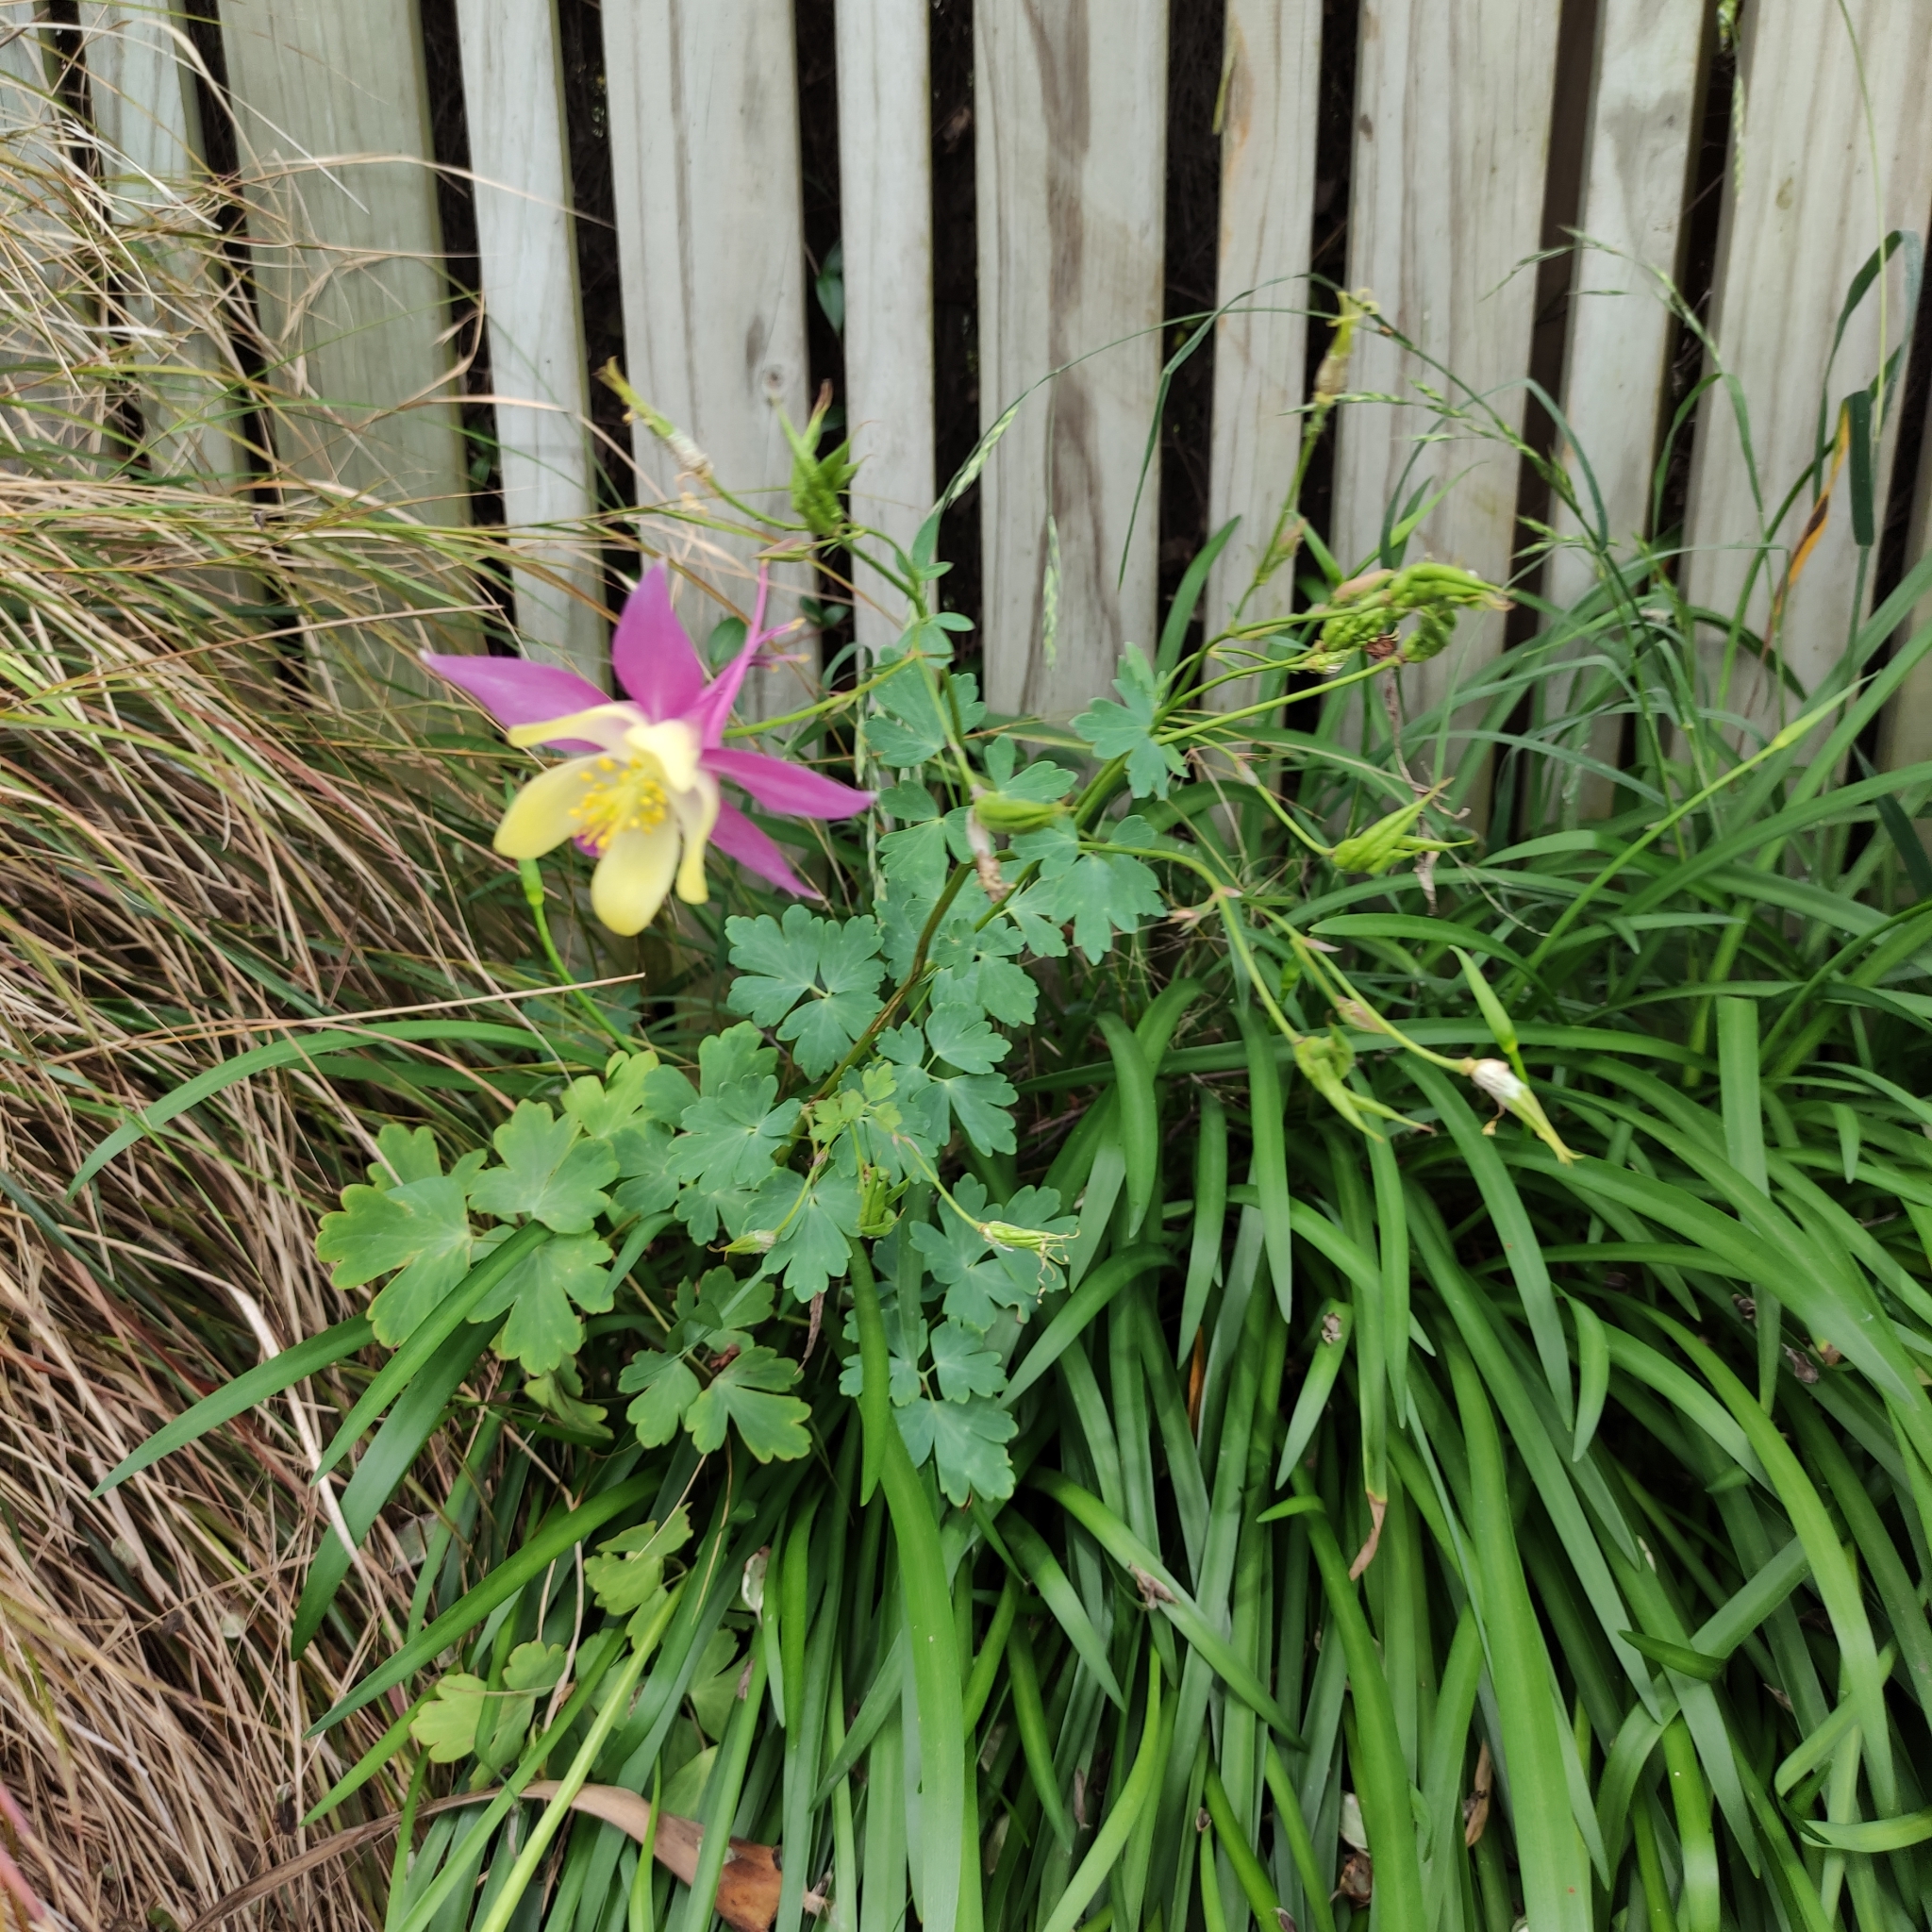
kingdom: Plantae
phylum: Tracheophyta
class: Magnoliopsida
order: Ranunculales
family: Ranunculaceae
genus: Aquilegia
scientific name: Aquilegia vulgaris
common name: Columbine
